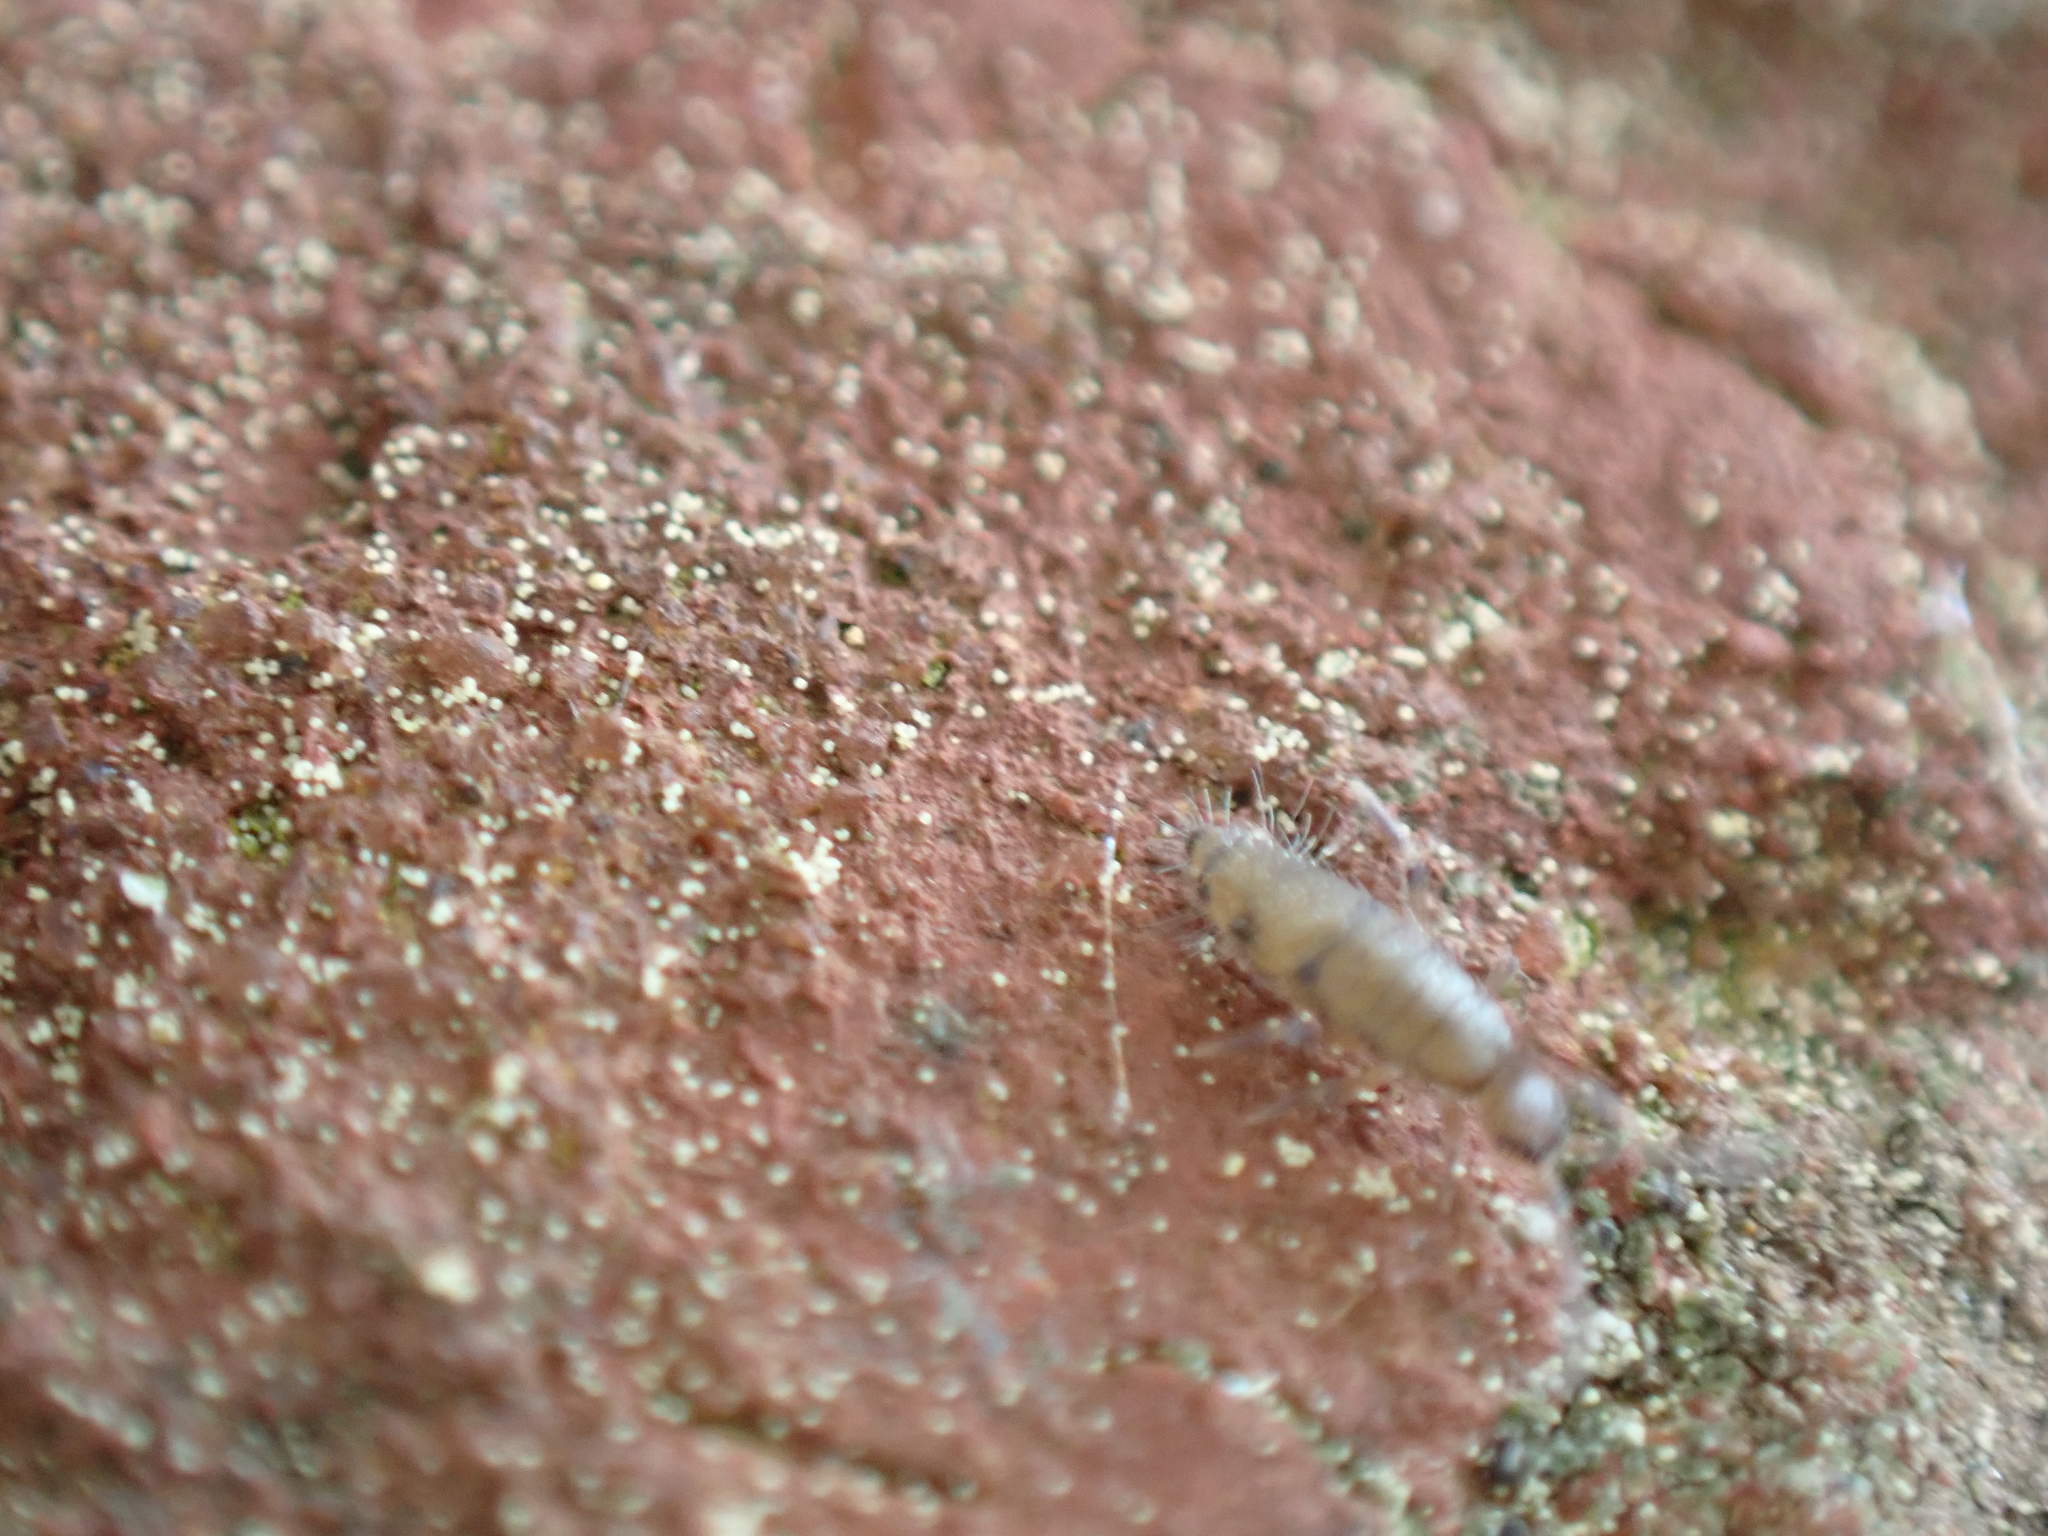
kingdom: Animalia
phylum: Arthropoda
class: Collembola
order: Entomobryomorpha
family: Entomobryidae
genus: Willowsia
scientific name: Willowsia nigromaculata
